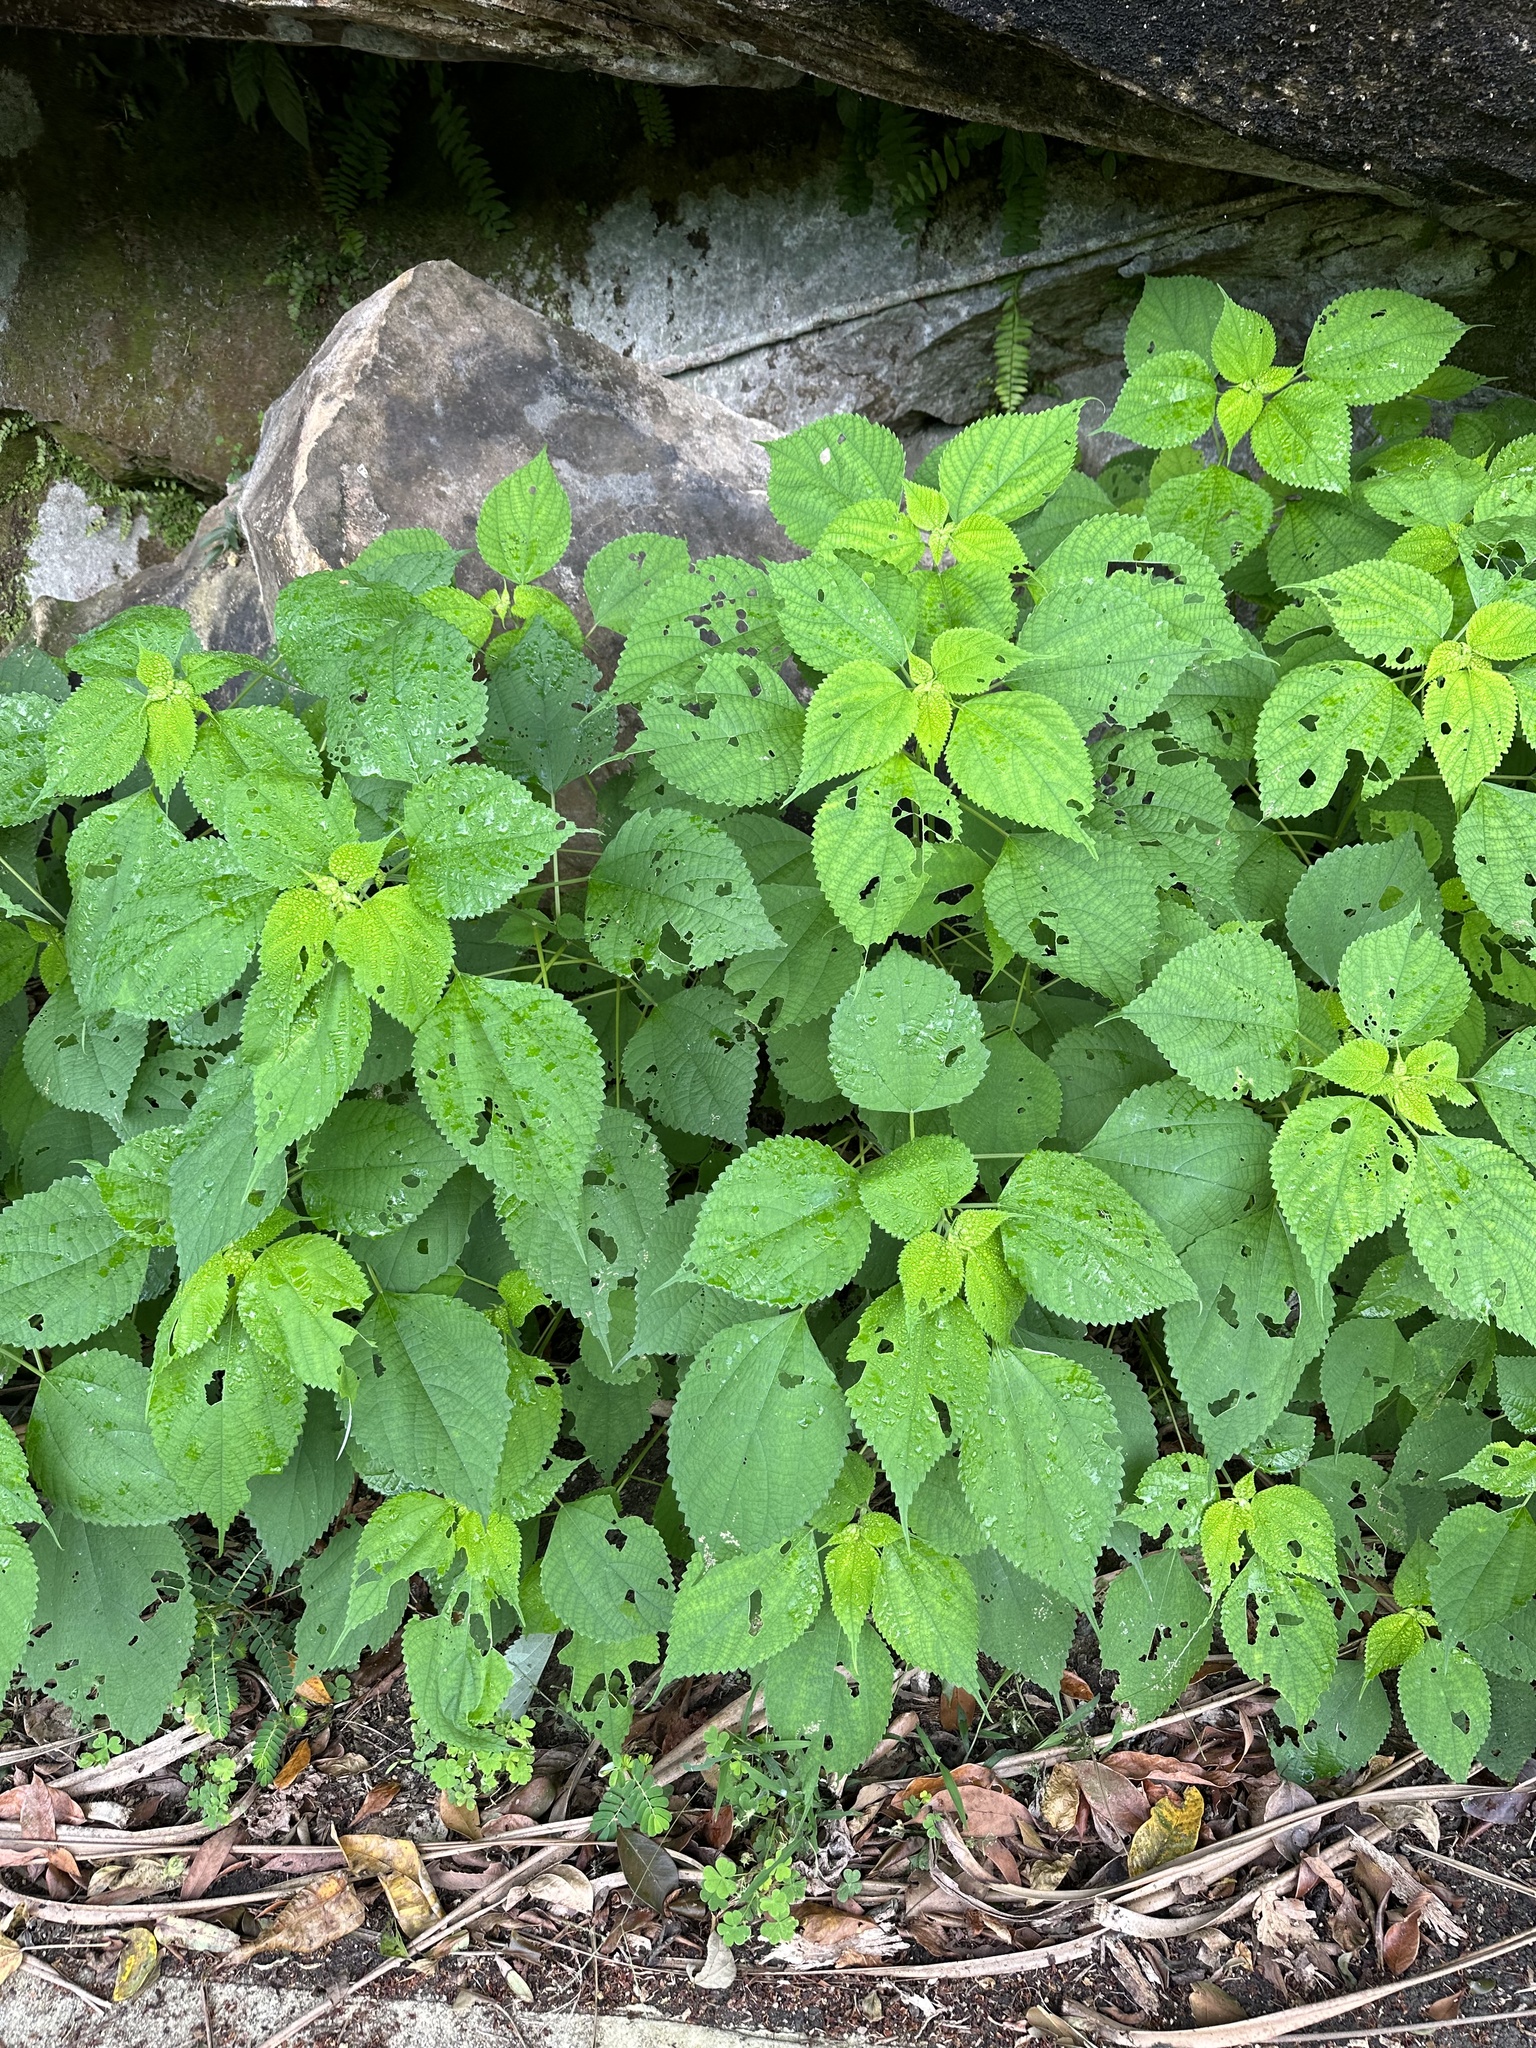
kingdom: Plantae
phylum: Tracheophyta
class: Magnoliopsida
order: Rosales
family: Urticaceae
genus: Boehmeria
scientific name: Boehmeria nivea
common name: Ramie chinese grass
